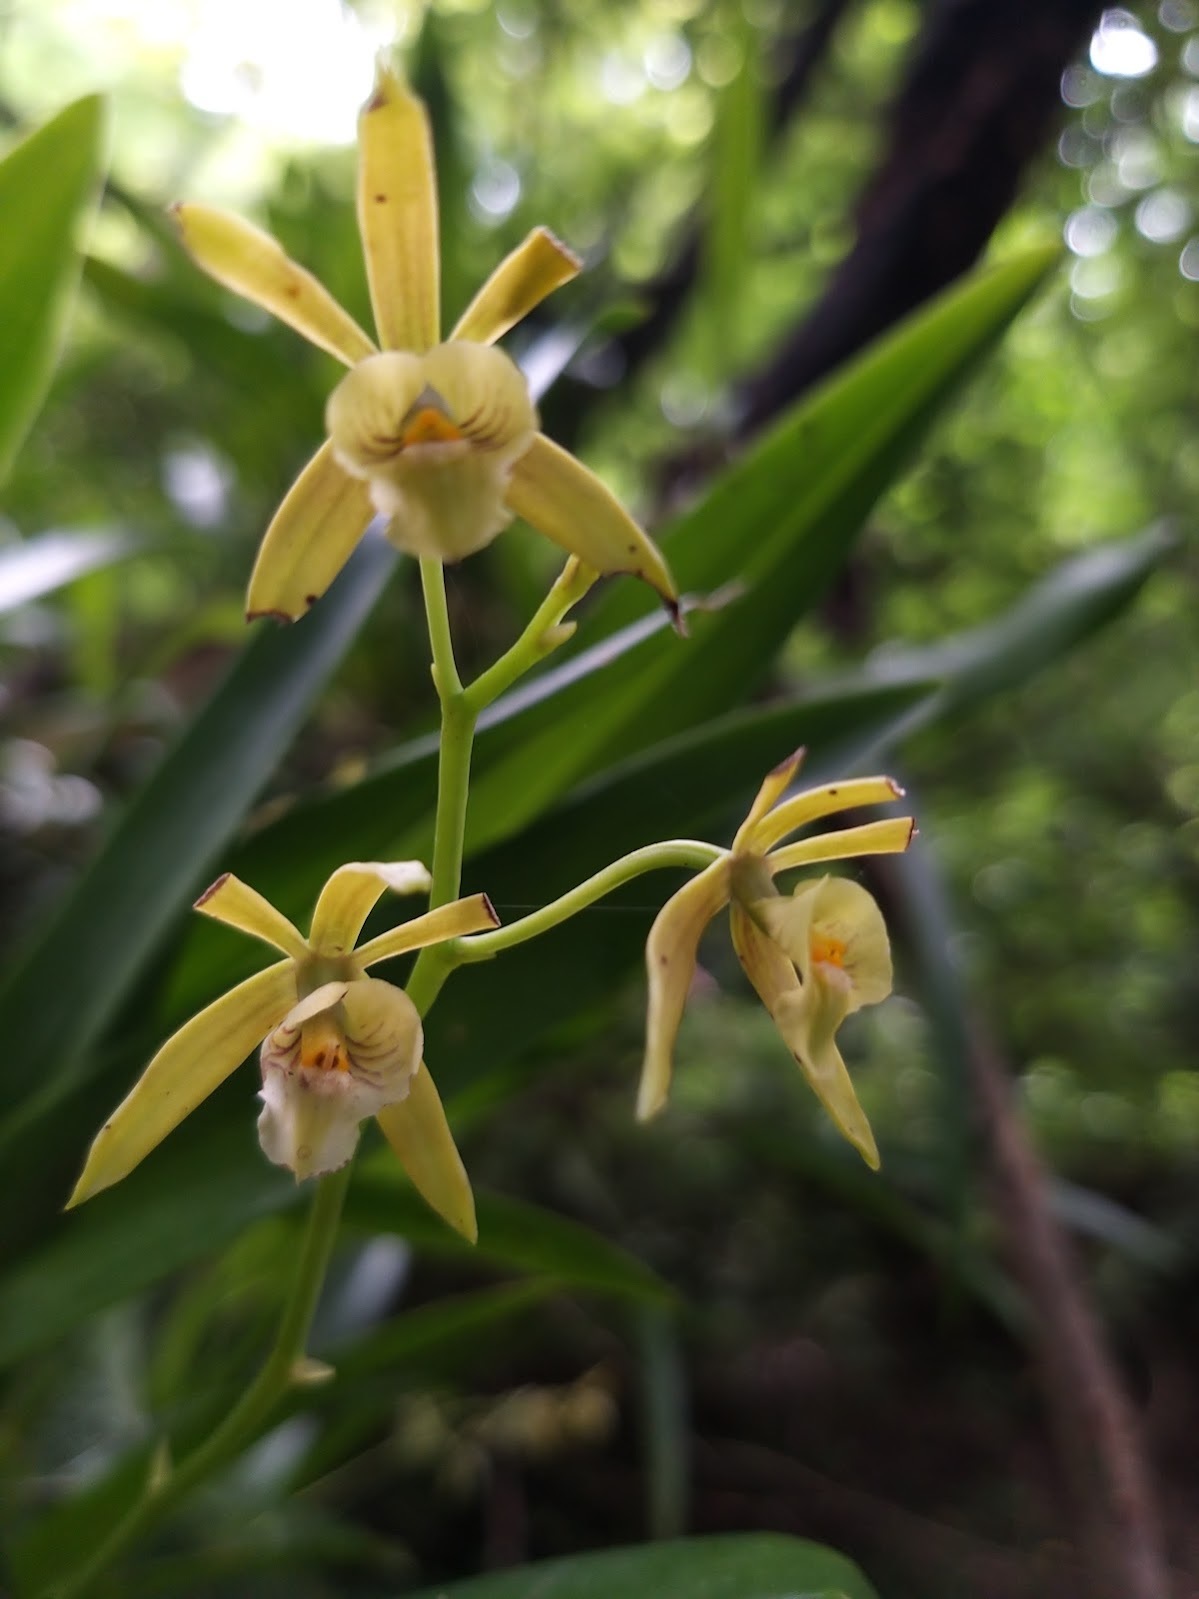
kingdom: Plantae
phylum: Tracheophyta
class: Liliopsida
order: Asparagales
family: Orchidaceae
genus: Prosthechea
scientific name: Prosthechea pterocarpa
